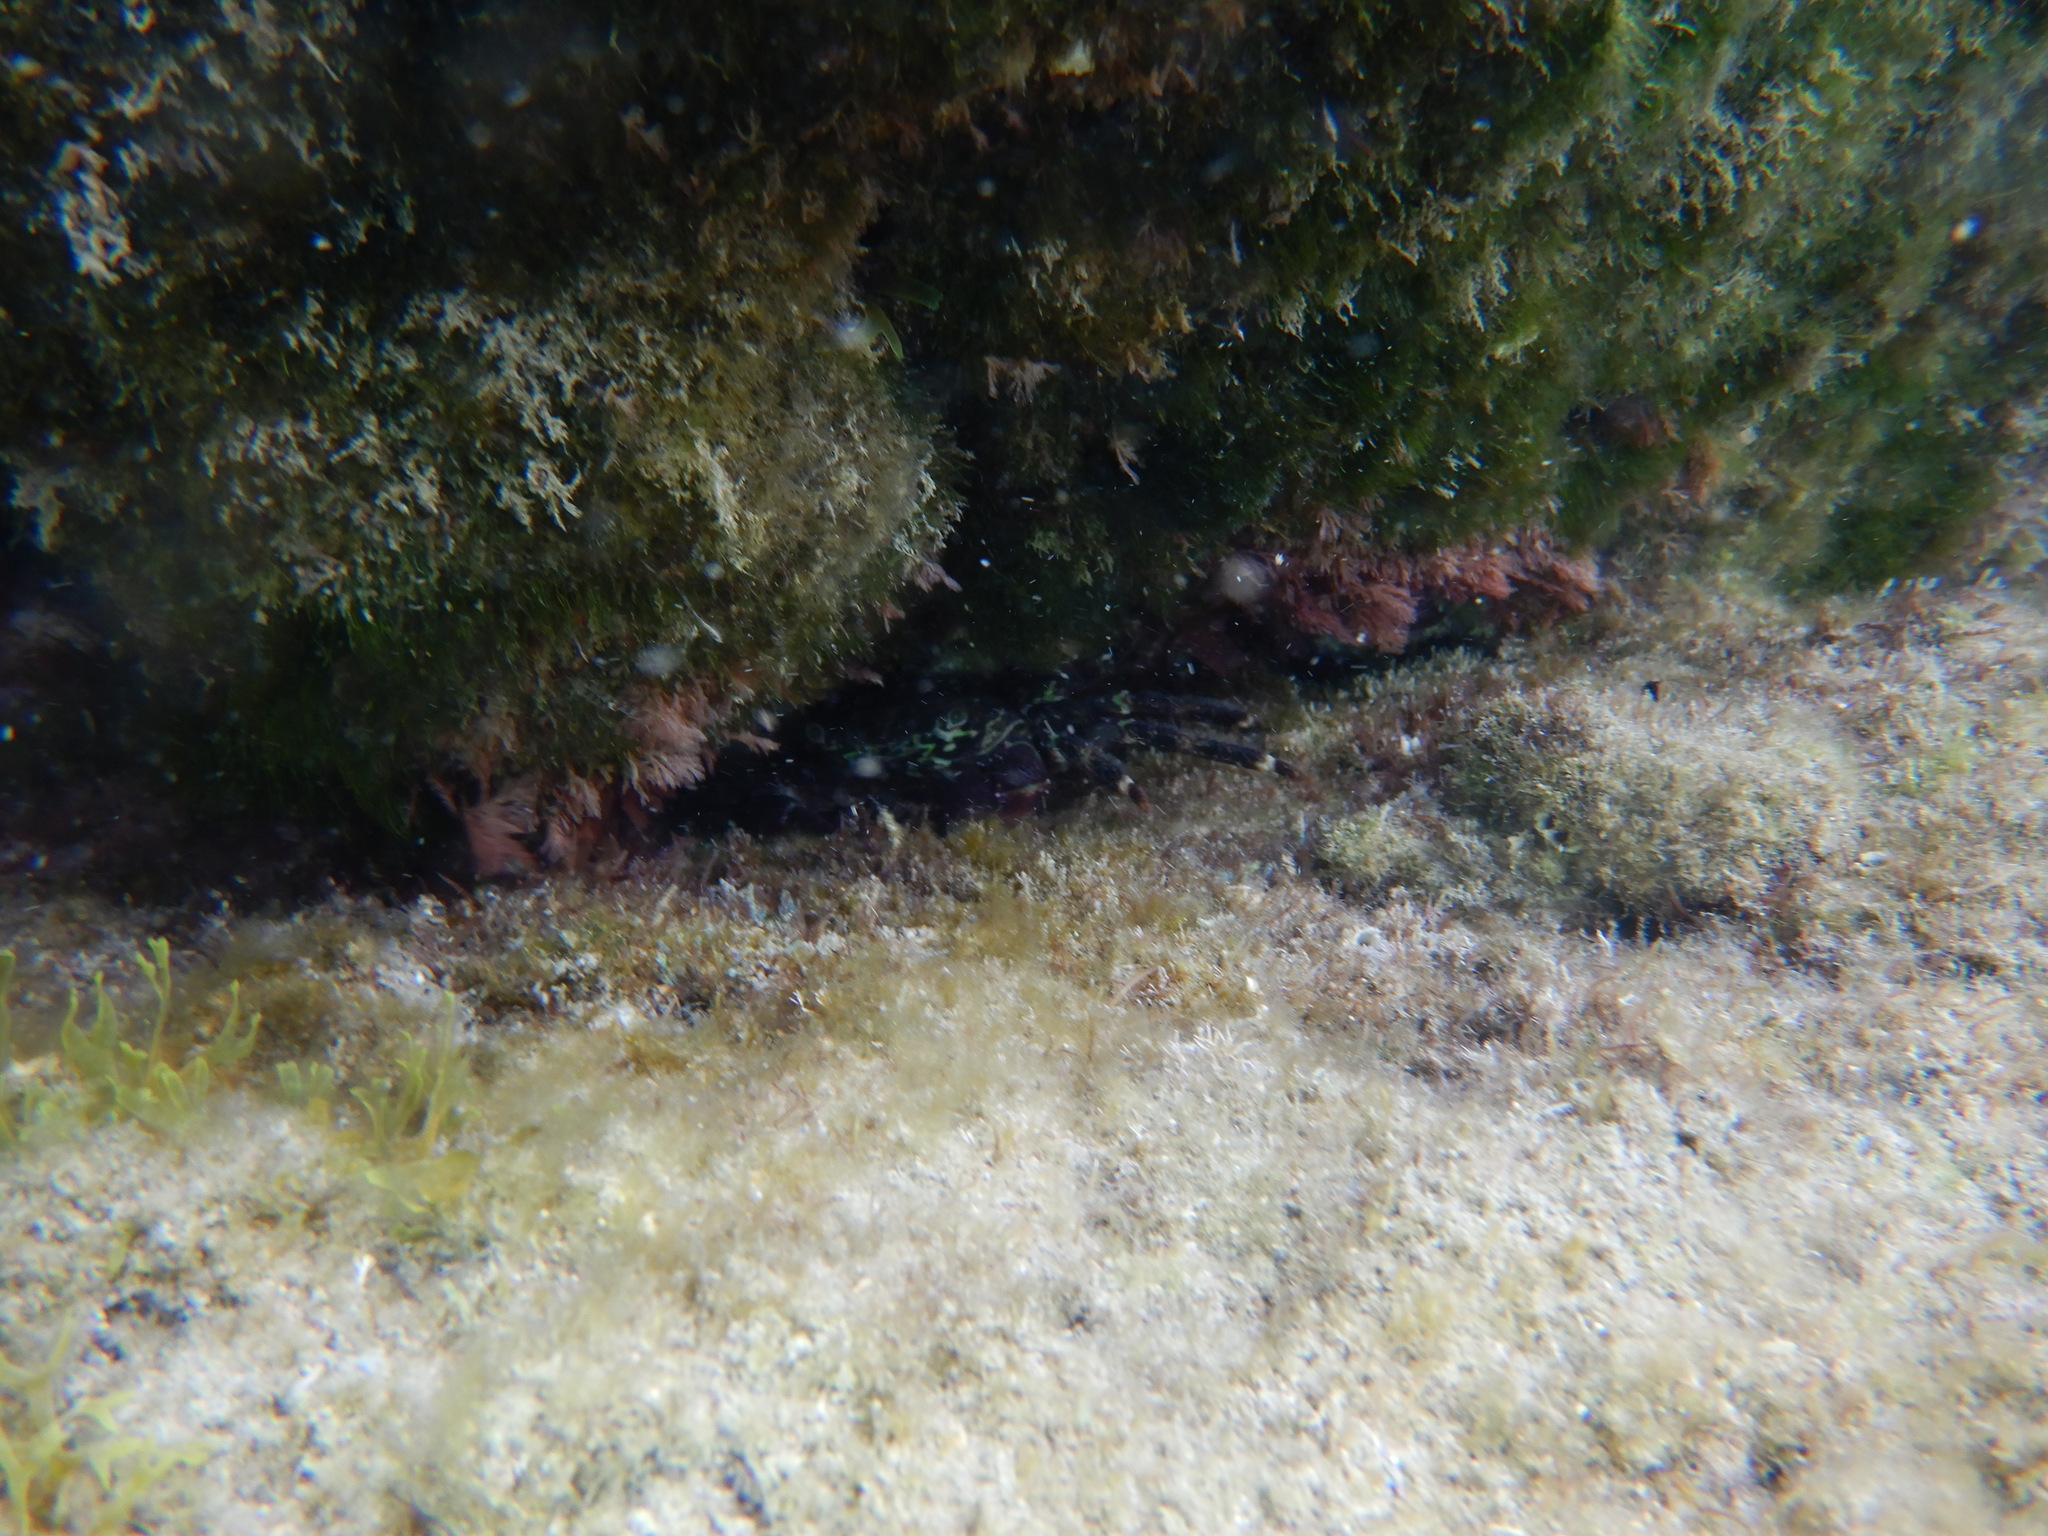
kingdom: Animalia
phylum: Arthropoda
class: Malacostraca
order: Decapoda
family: Grapsidae
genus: Pachygrapsus
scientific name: Pachygrapsus marmoratus
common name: Marbled rock crab
